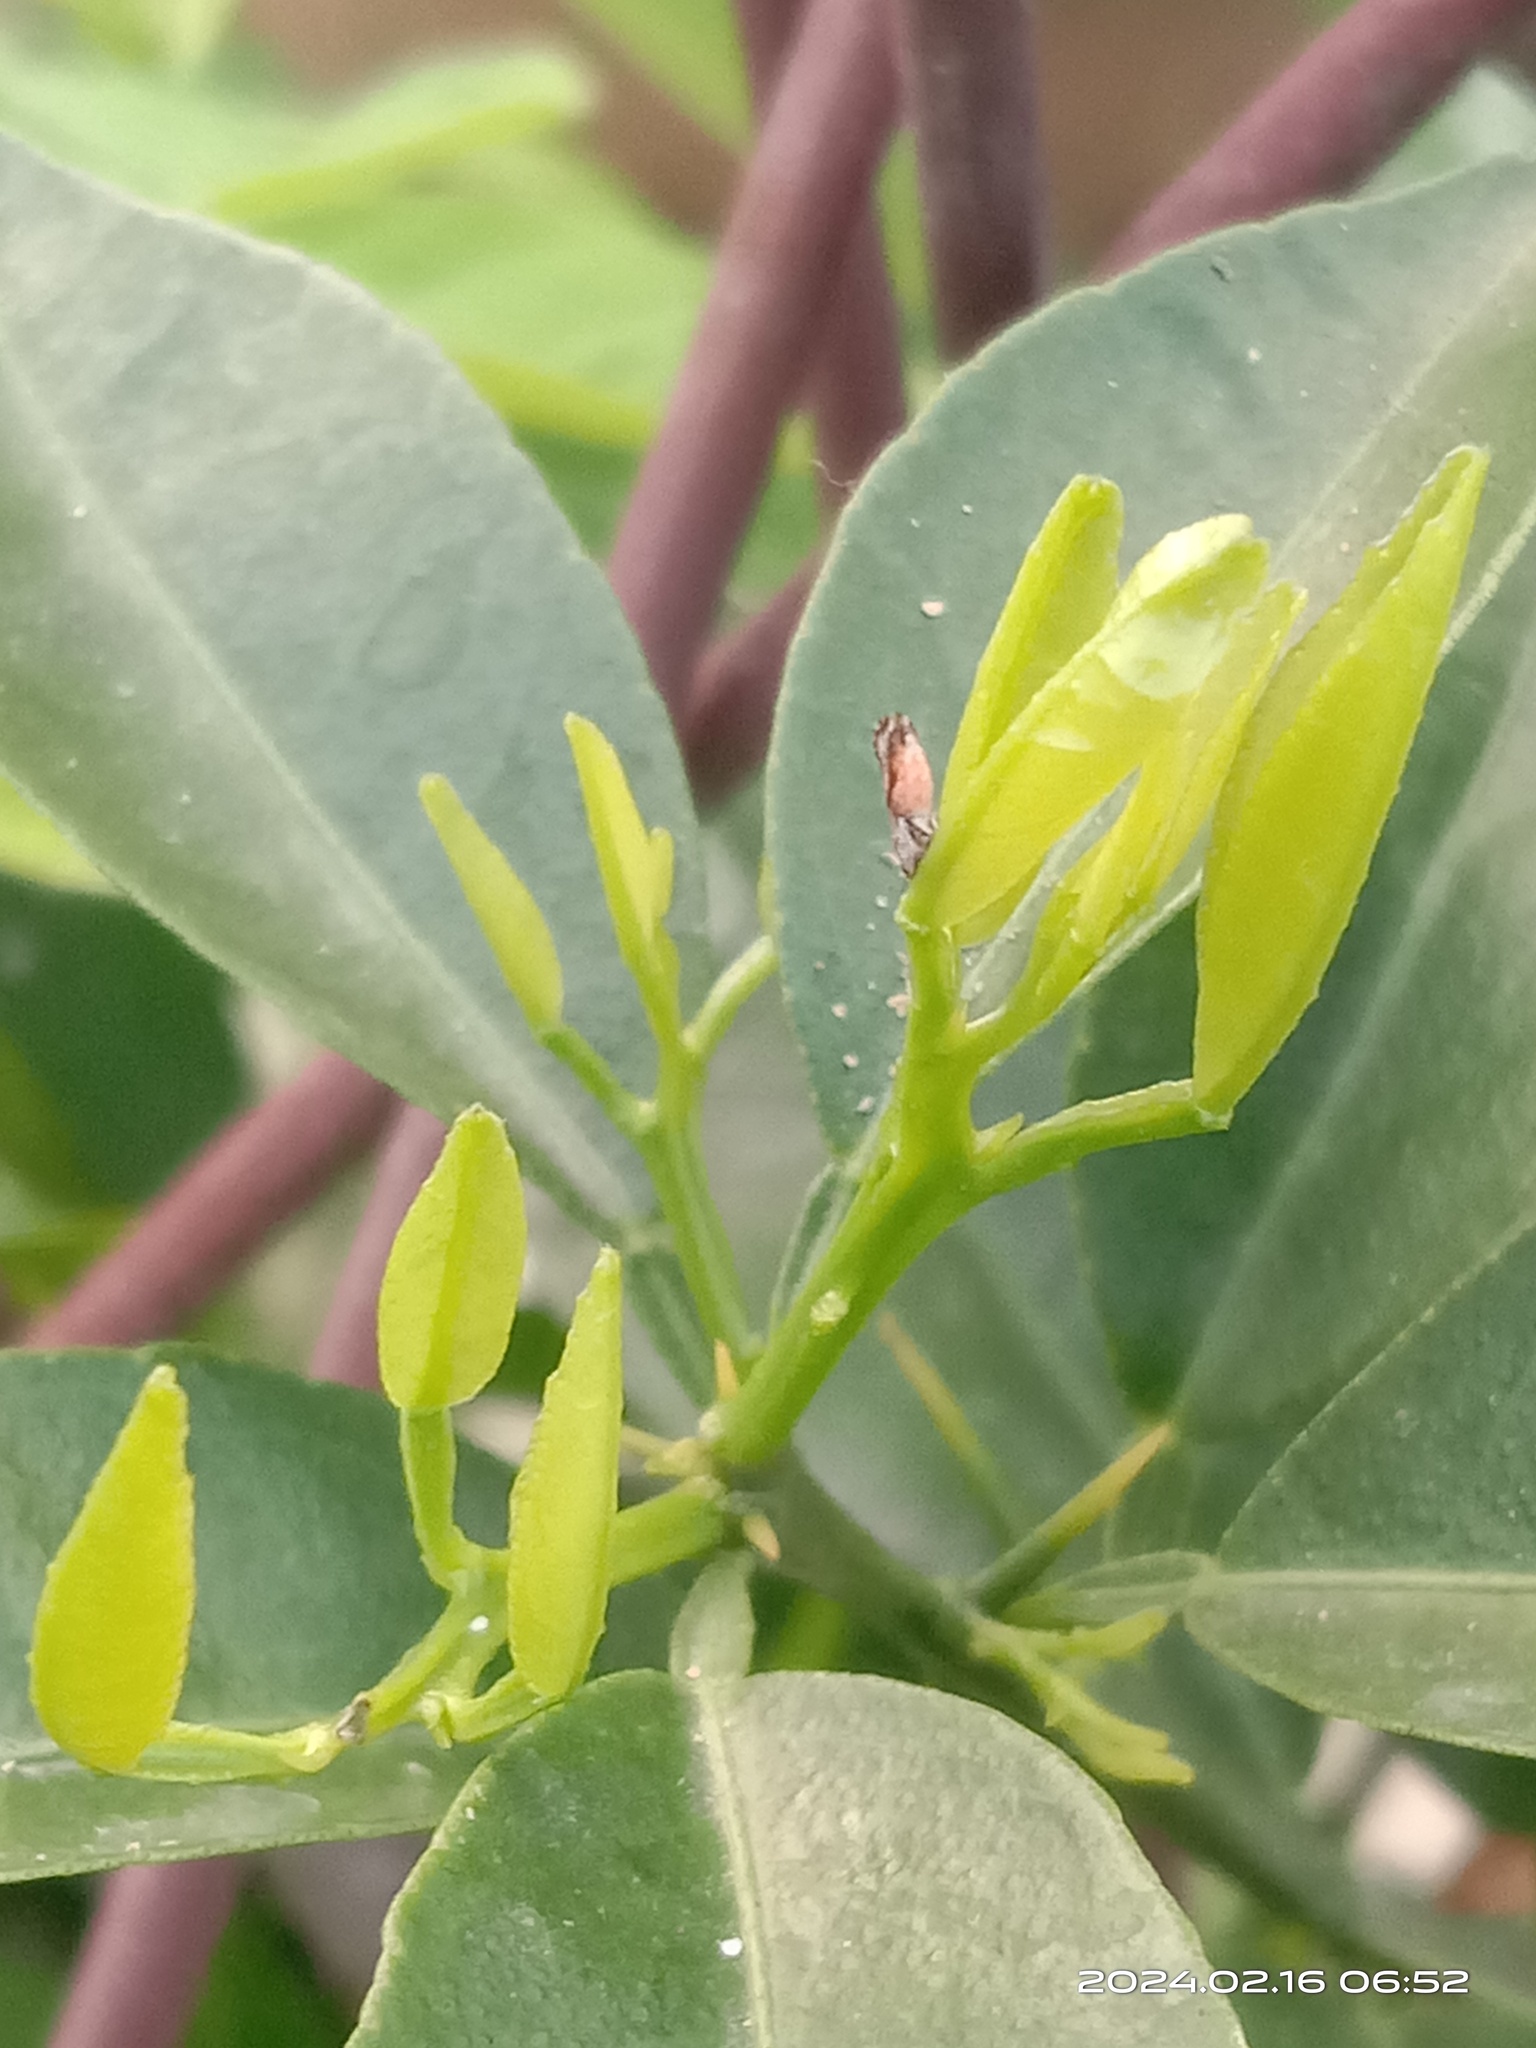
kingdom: Animalia
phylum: Arthropoda
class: Insecta
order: Hemiptera
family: Liviidae
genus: Diaphorina
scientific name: Diaphorina citri
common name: Asian citrus psyllid
